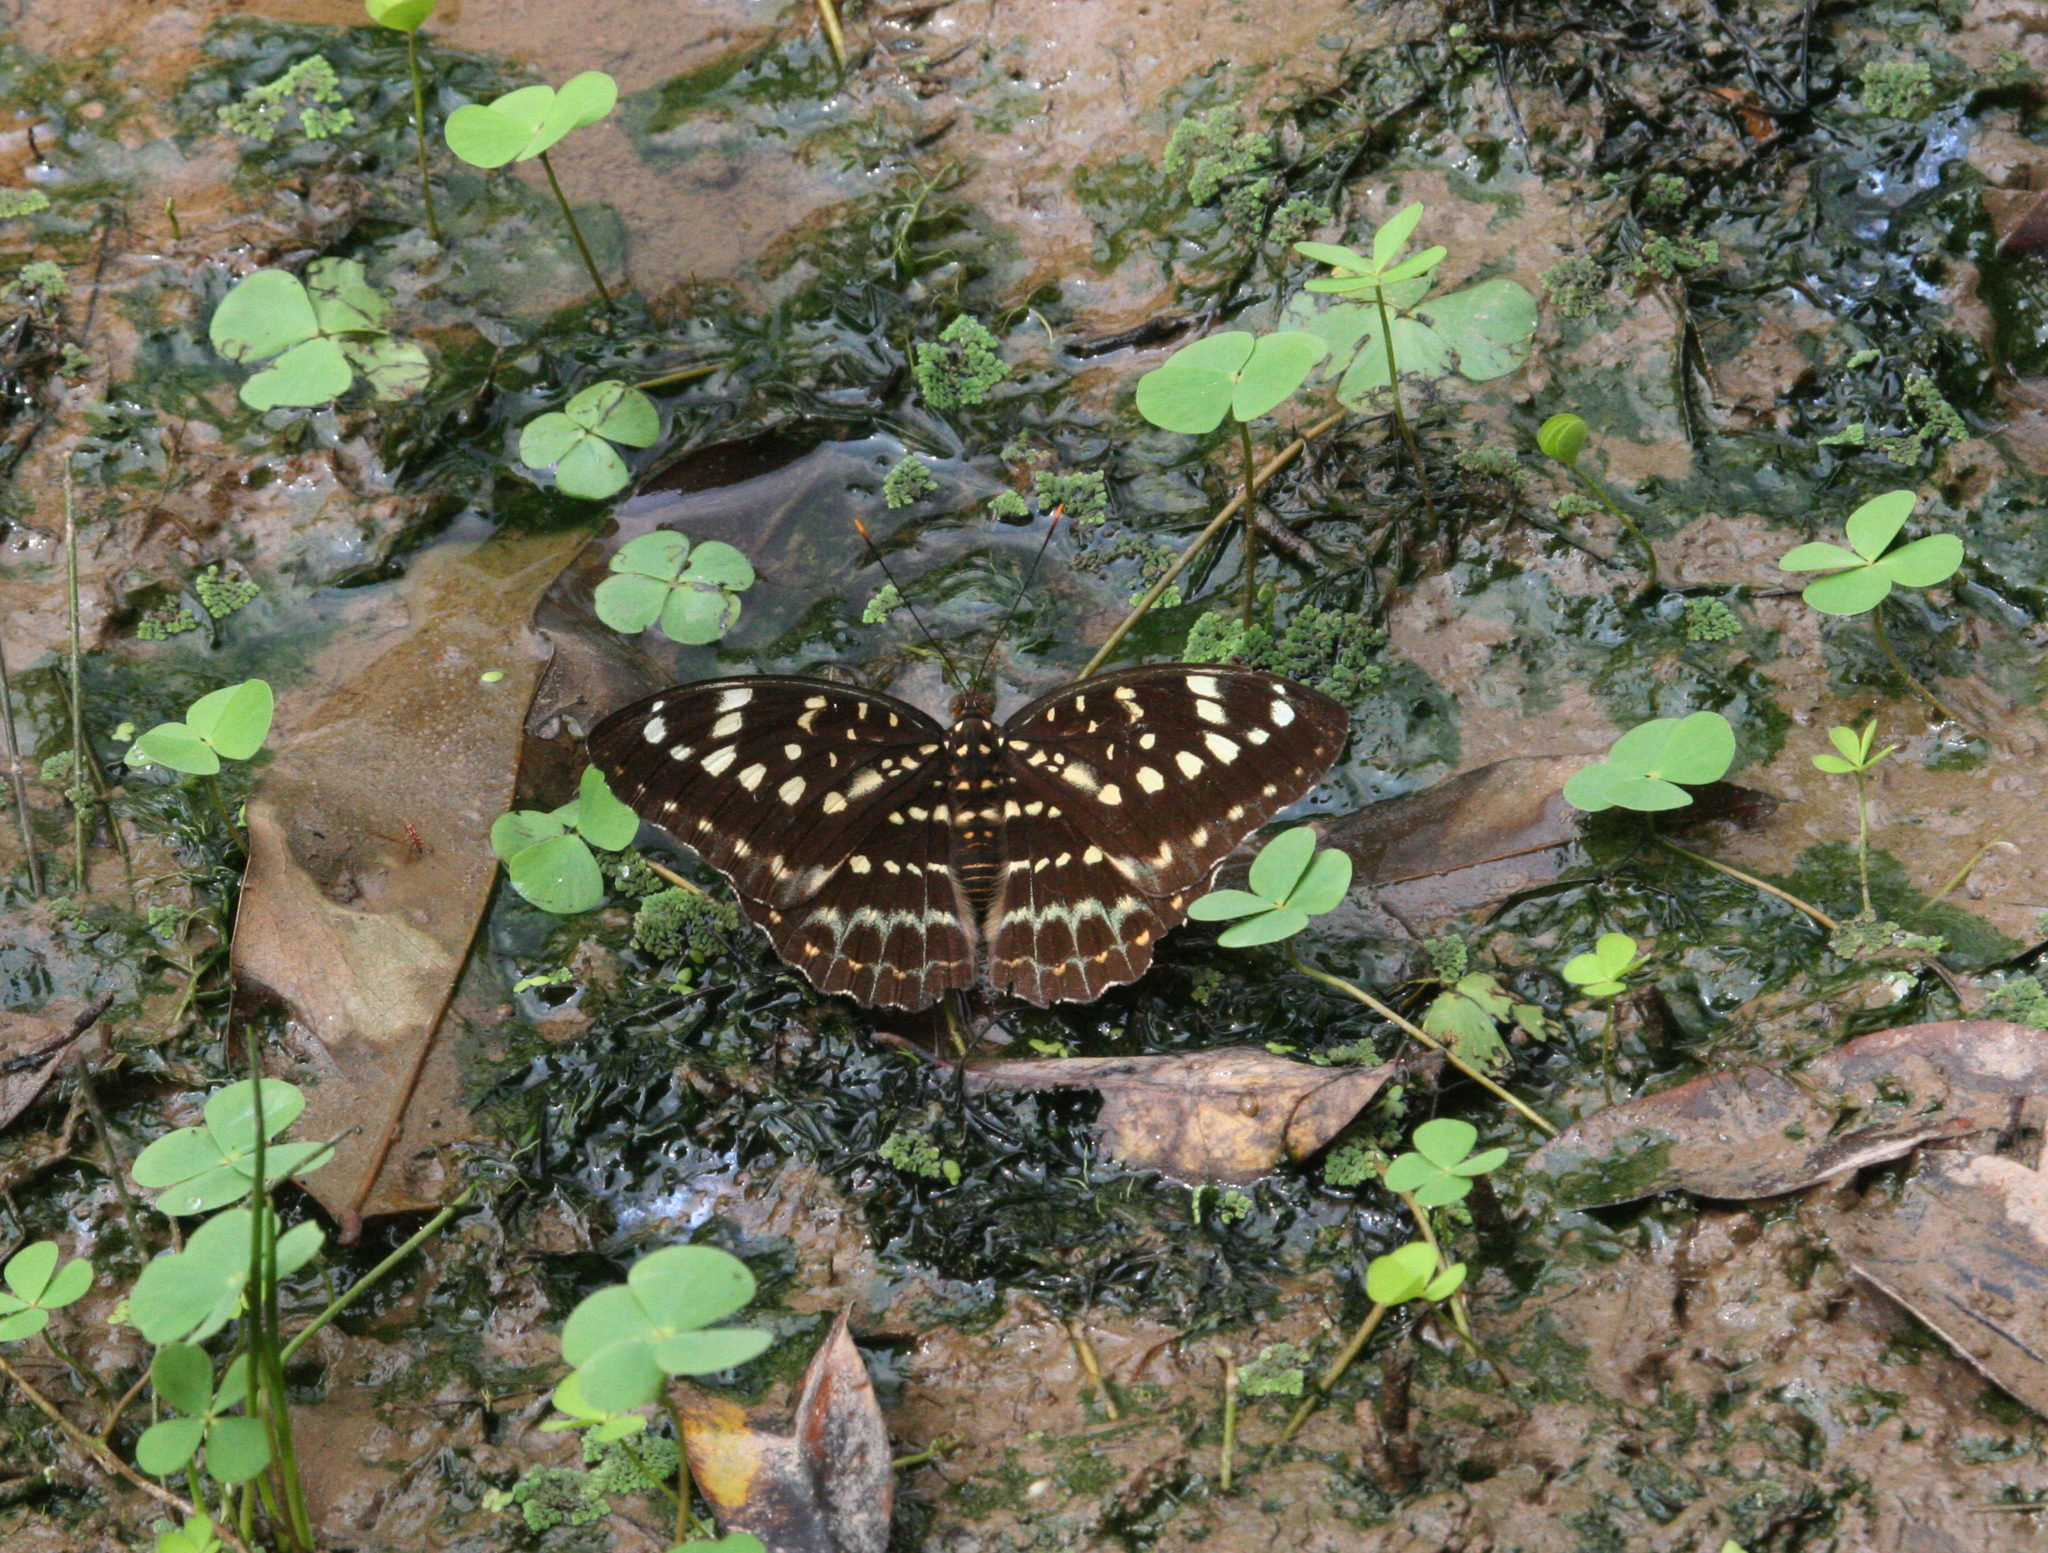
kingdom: Animalia
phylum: Arthropoda
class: Insecta
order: Lepidoptera
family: Nymphalidae
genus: Lexias
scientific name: Lexias pardalis
